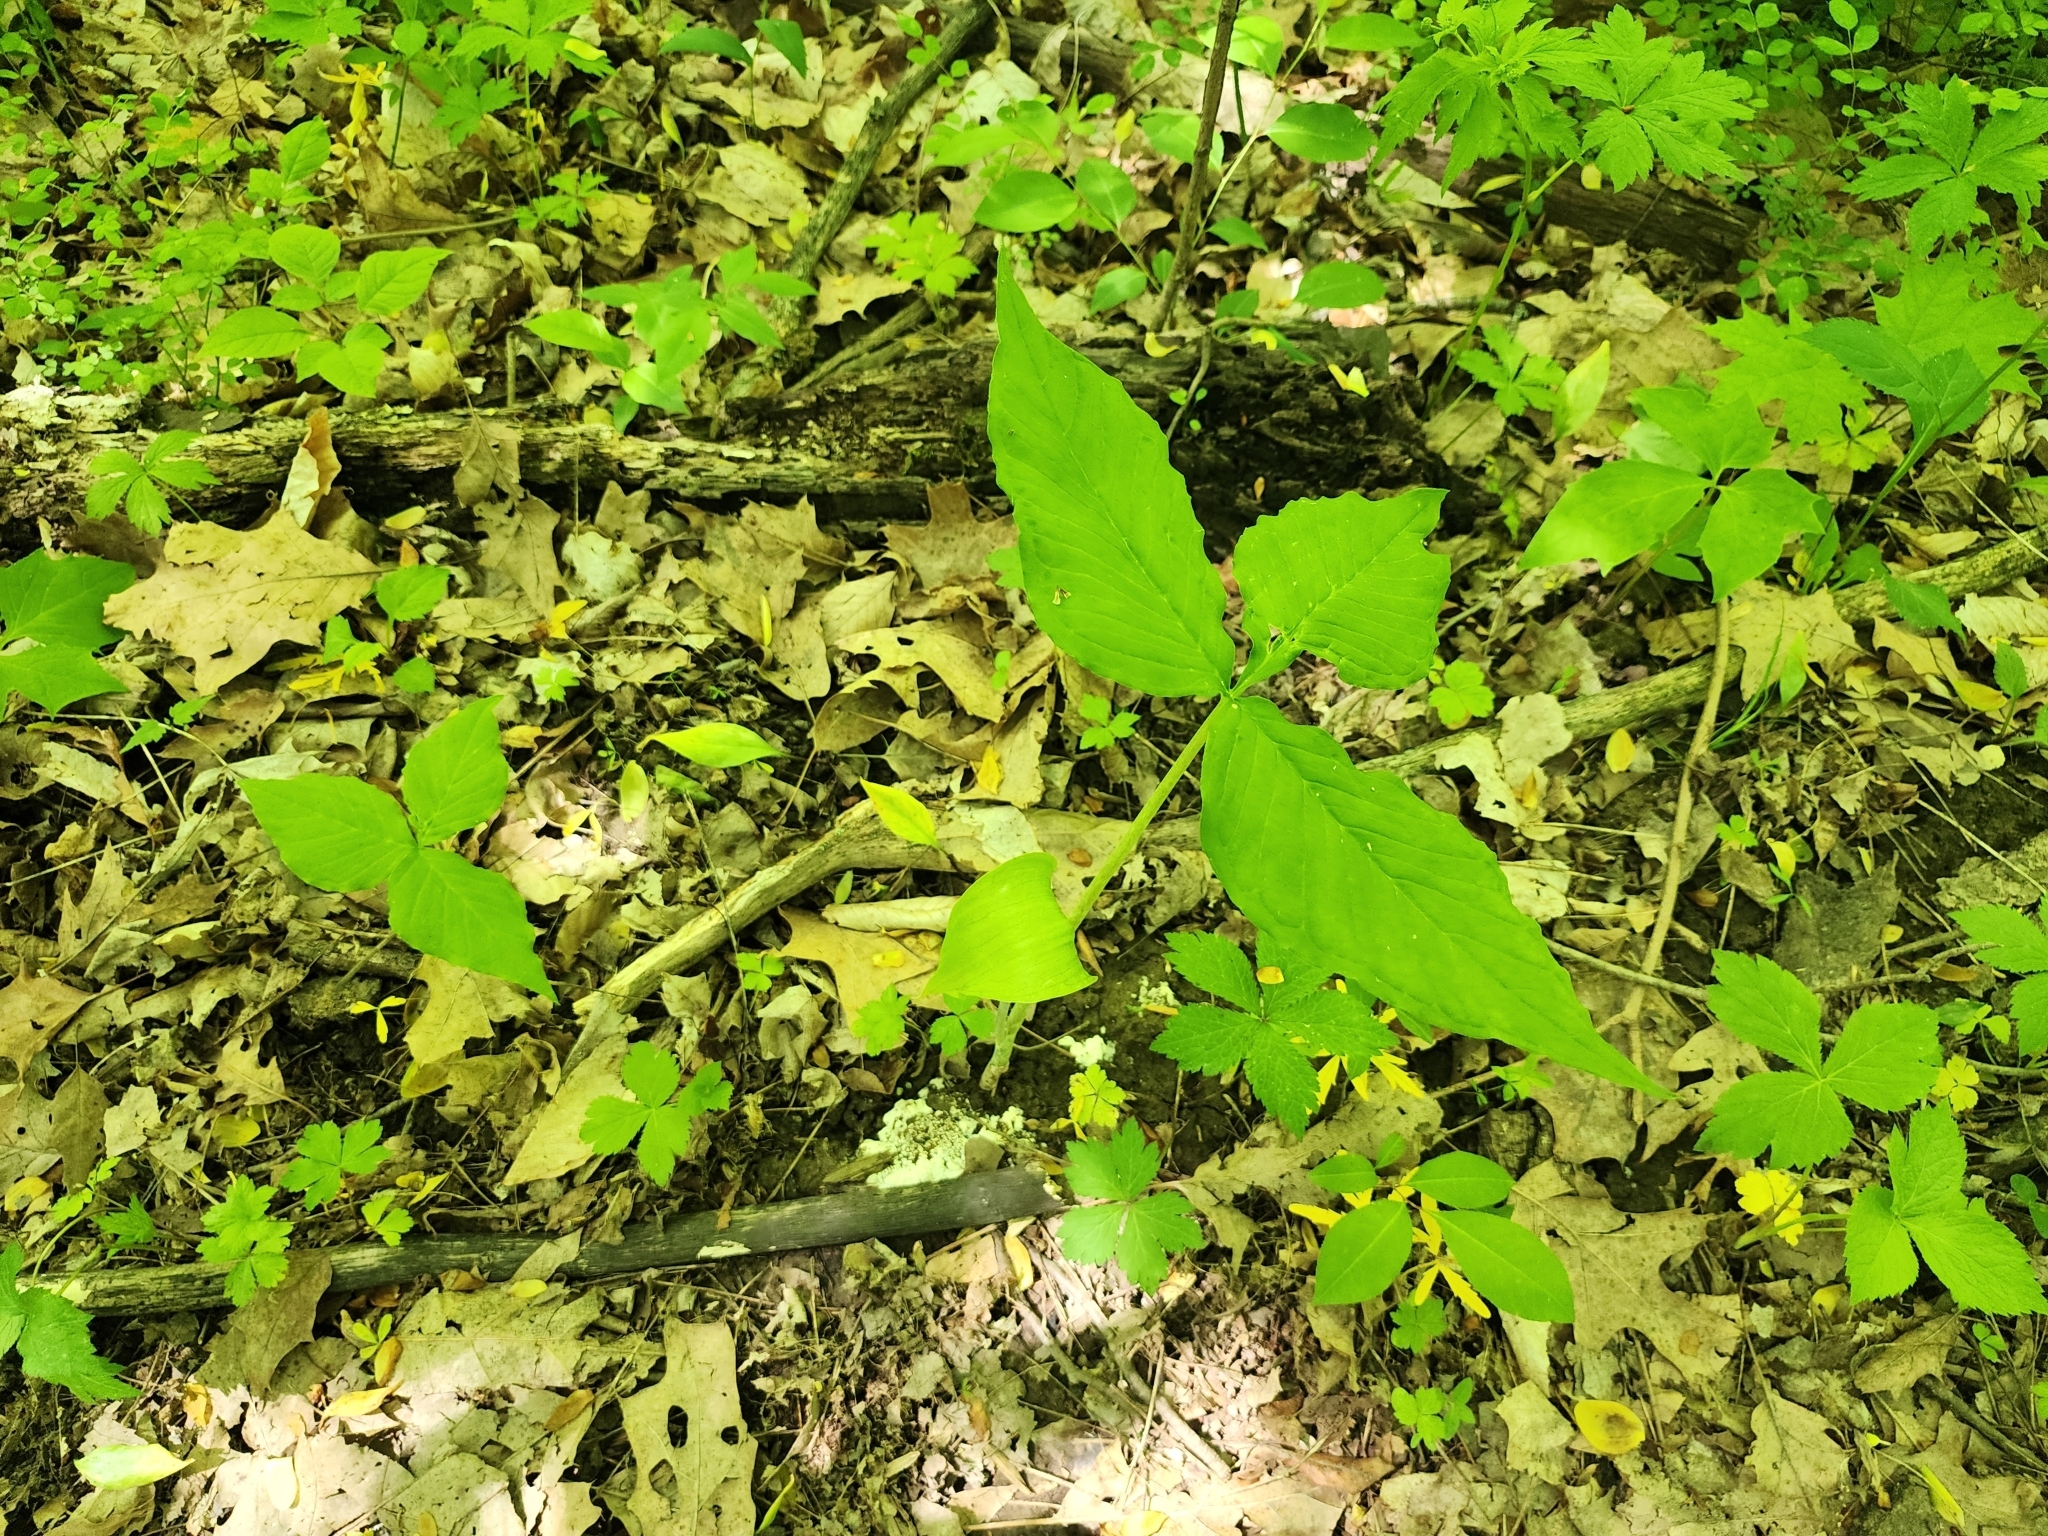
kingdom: Plantae
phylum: Tracheophyta
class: Liliopsida
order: Alismatales
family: Araceae
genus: Arisaema
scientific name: Arisaema triphyllum
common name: Jack-in-the-pulpit
